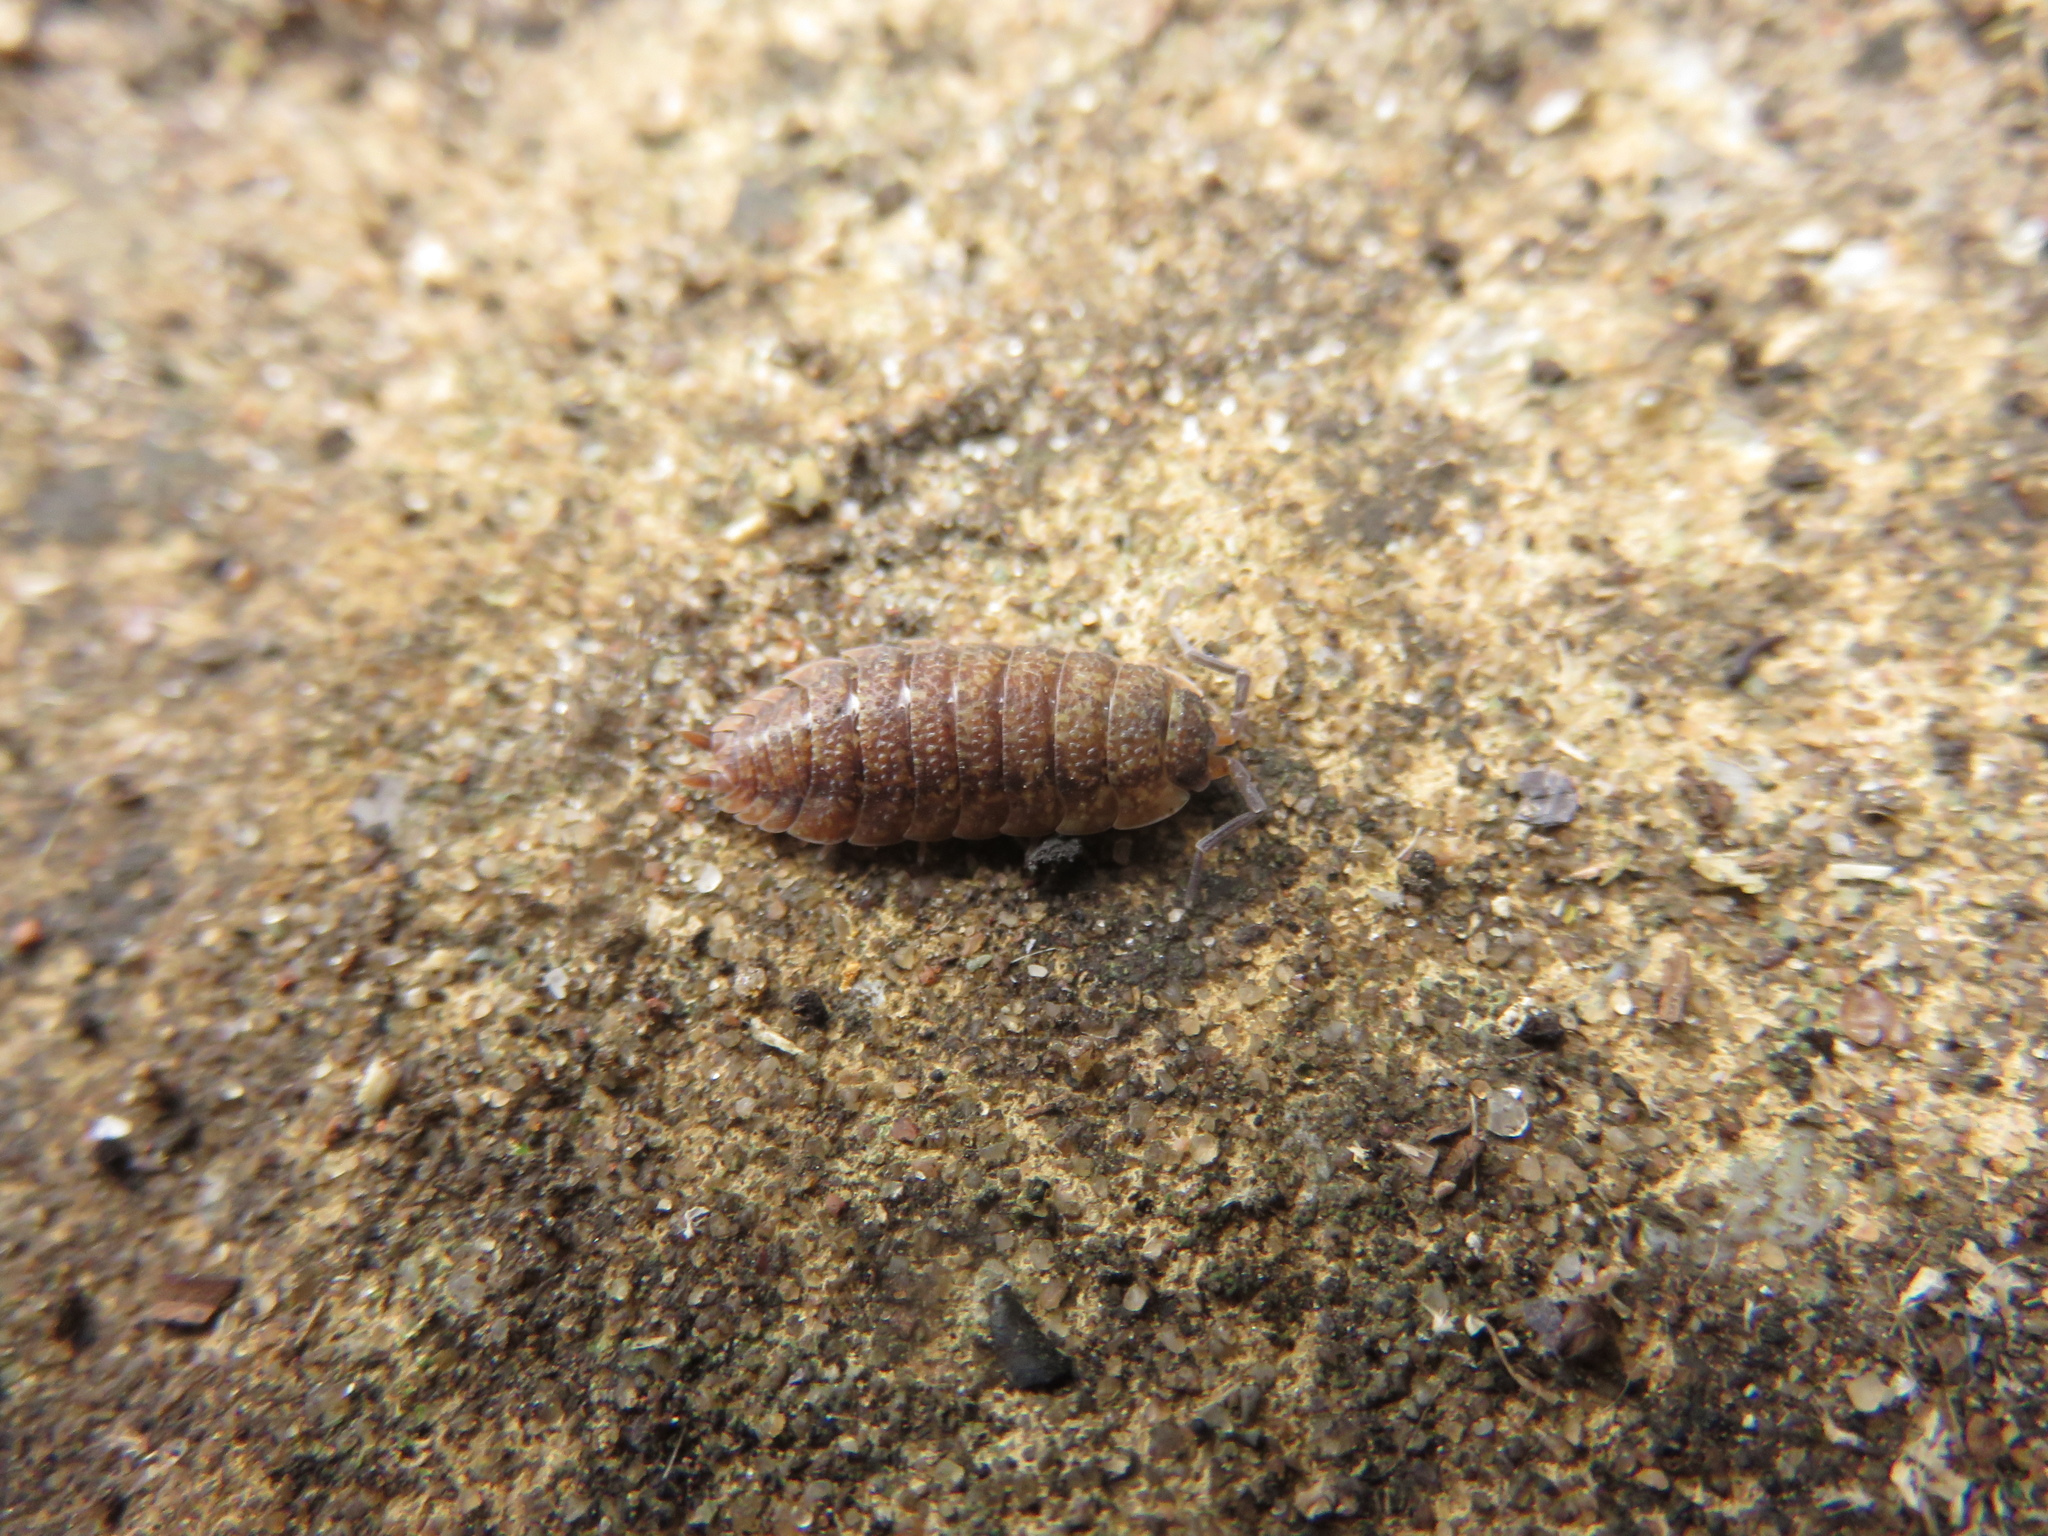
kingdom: Animalia
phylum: Arthropoda
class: Malacostraca
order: Isopoda
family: Porcellionidae
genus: Porcellio
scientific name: Porcellio scaber
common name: Common rough woodlouse
